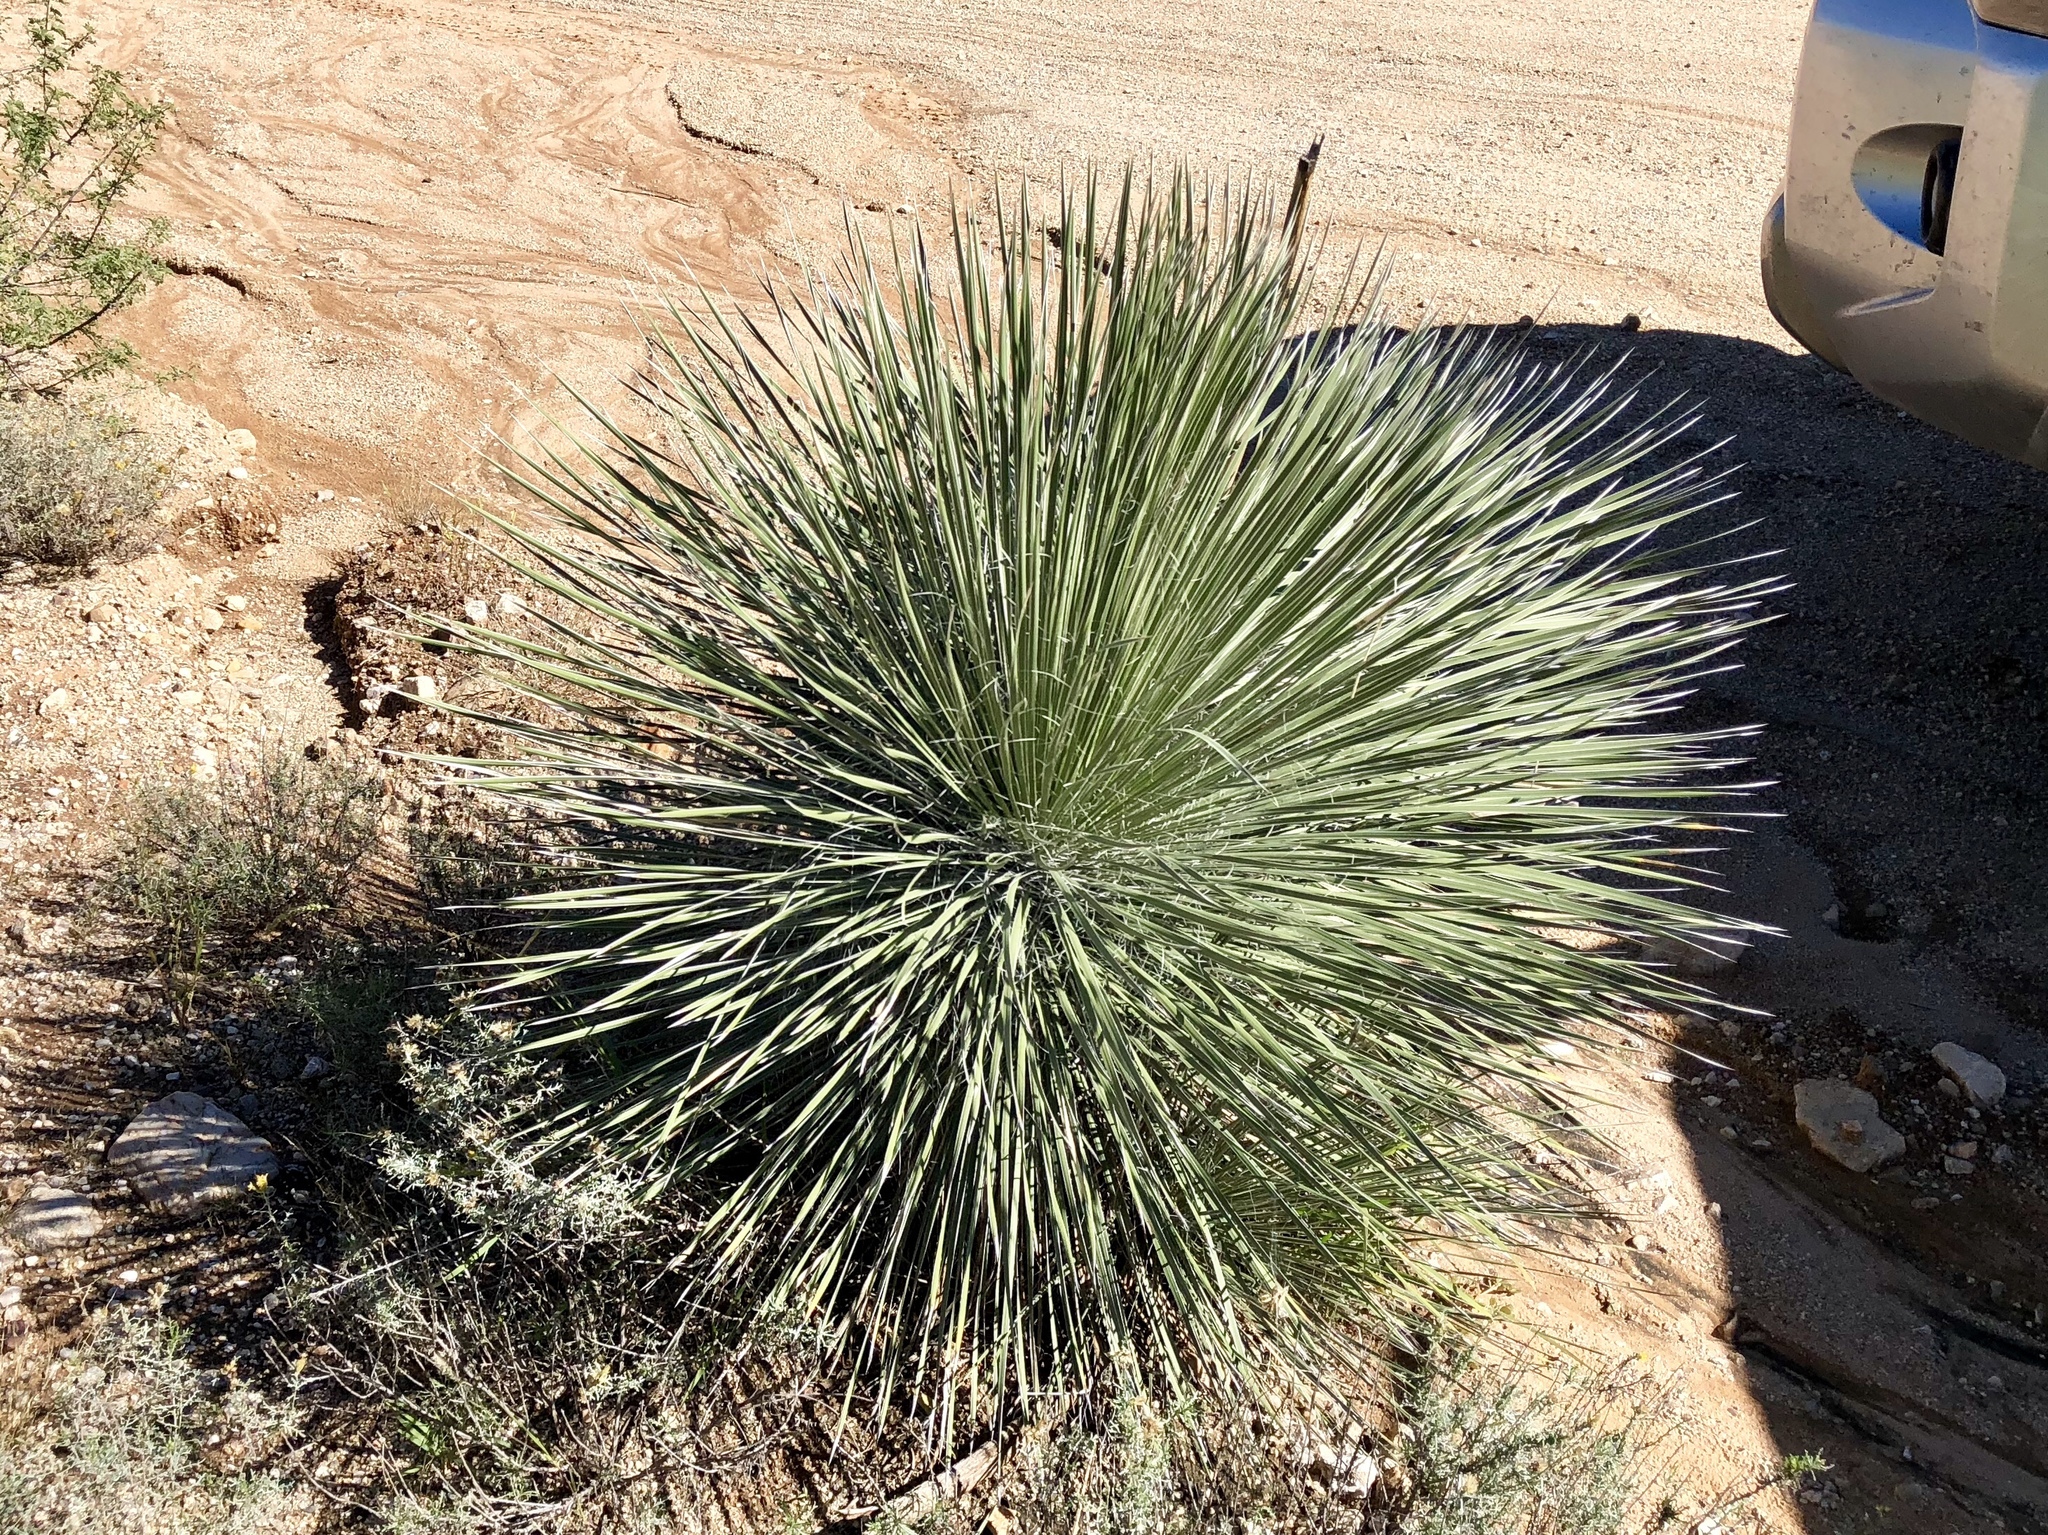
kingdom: Plantae
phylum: Tracheophyta
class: Liliopsida
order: Asparagales
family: Asparagaceae
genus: Yucca
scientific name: Yucca elata
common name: Palmella
